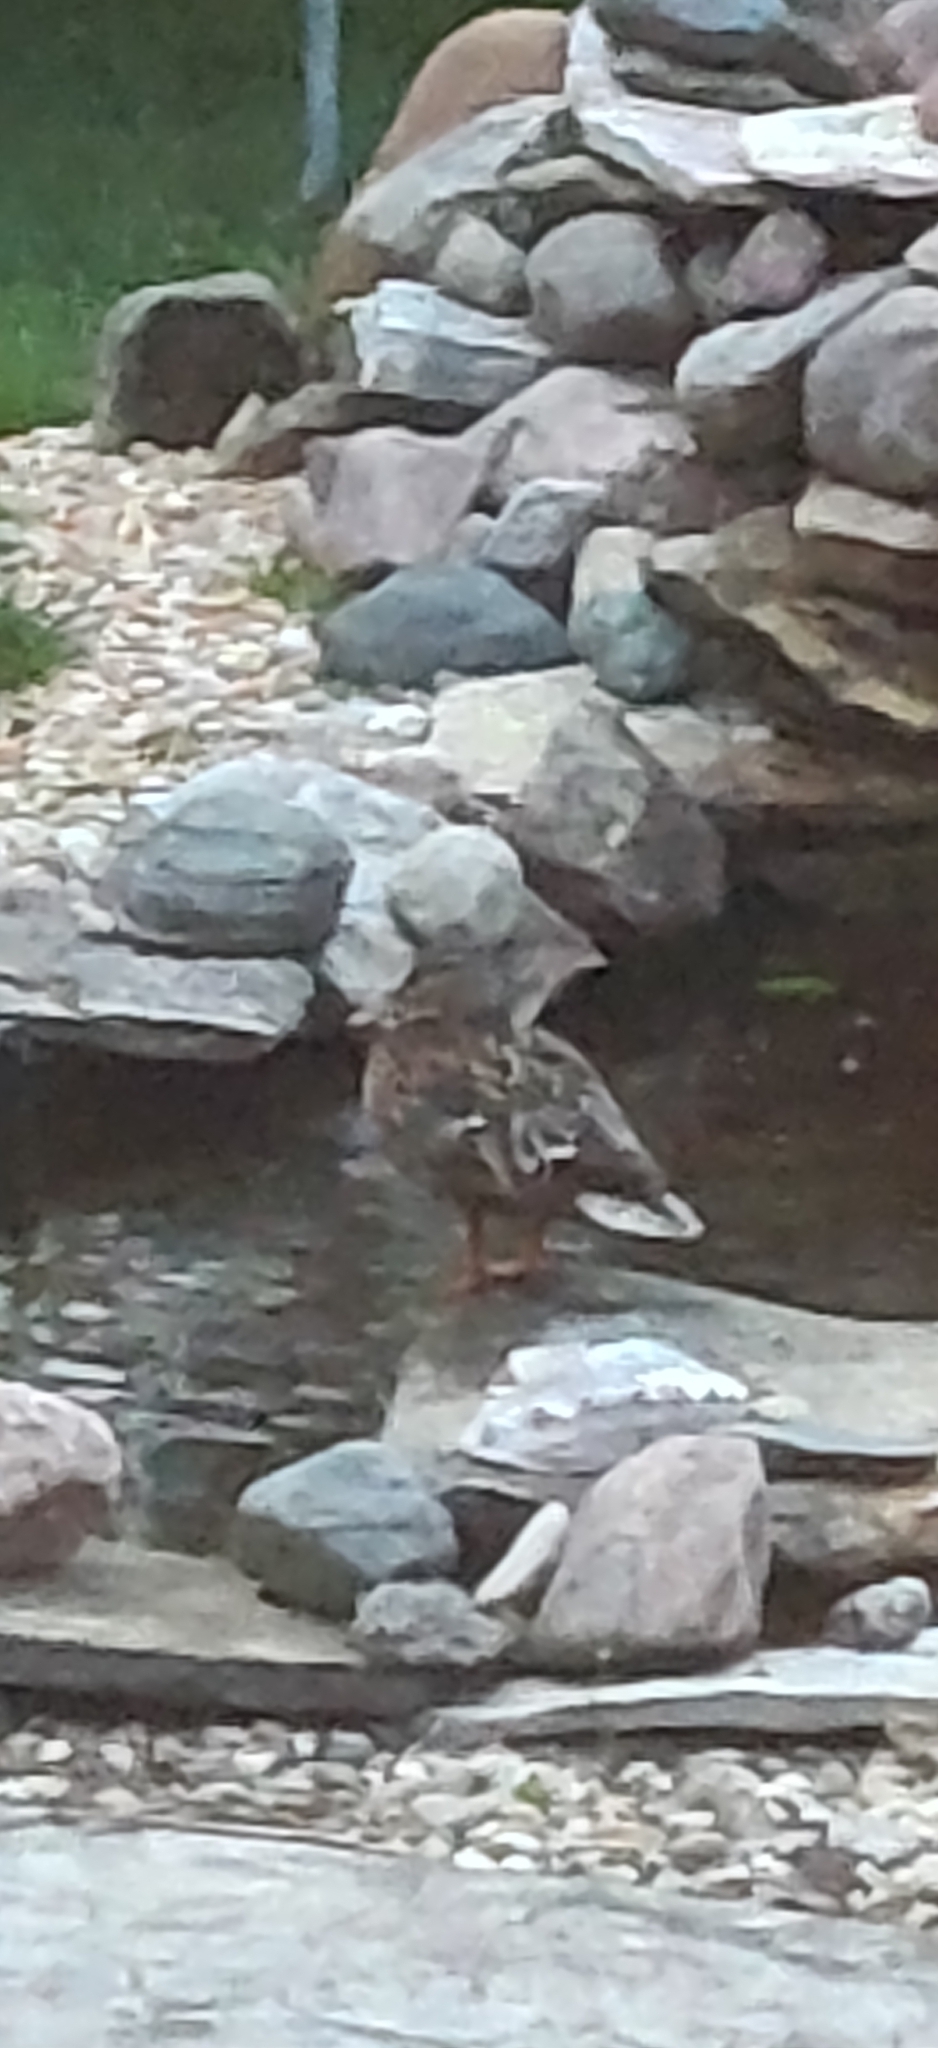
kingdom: Animalia
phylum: Chordata
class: Aves
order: Anseriformes
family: Anatidae
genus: Anas
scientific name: Anas platyrhynchos
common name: Mallard
